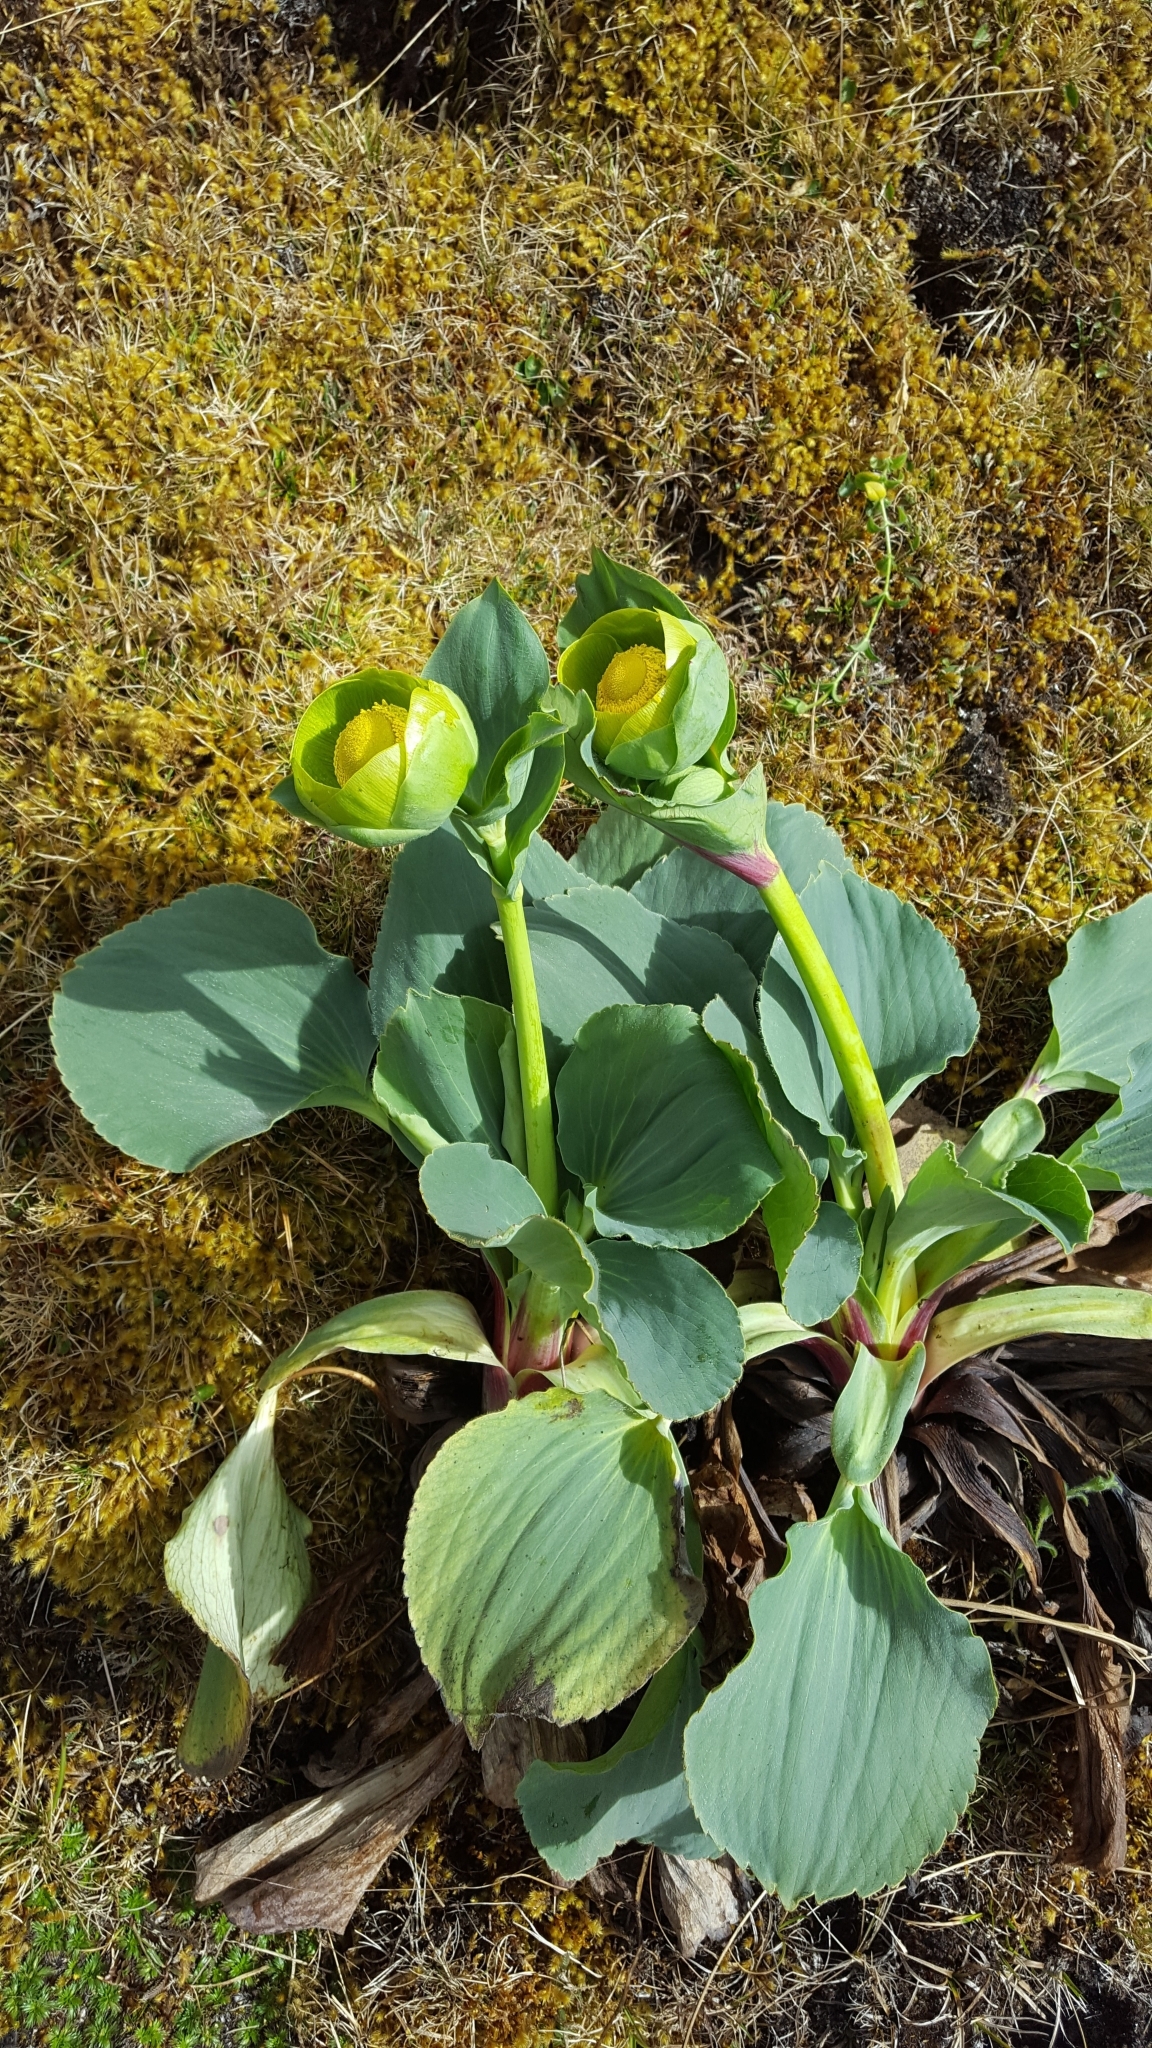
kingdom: Plantae
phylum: Tracheophyta
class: Magnoliopsida
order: Ranunculales
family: Ranunculaceae
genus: Krapfia
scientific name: Krapfia macropetala
